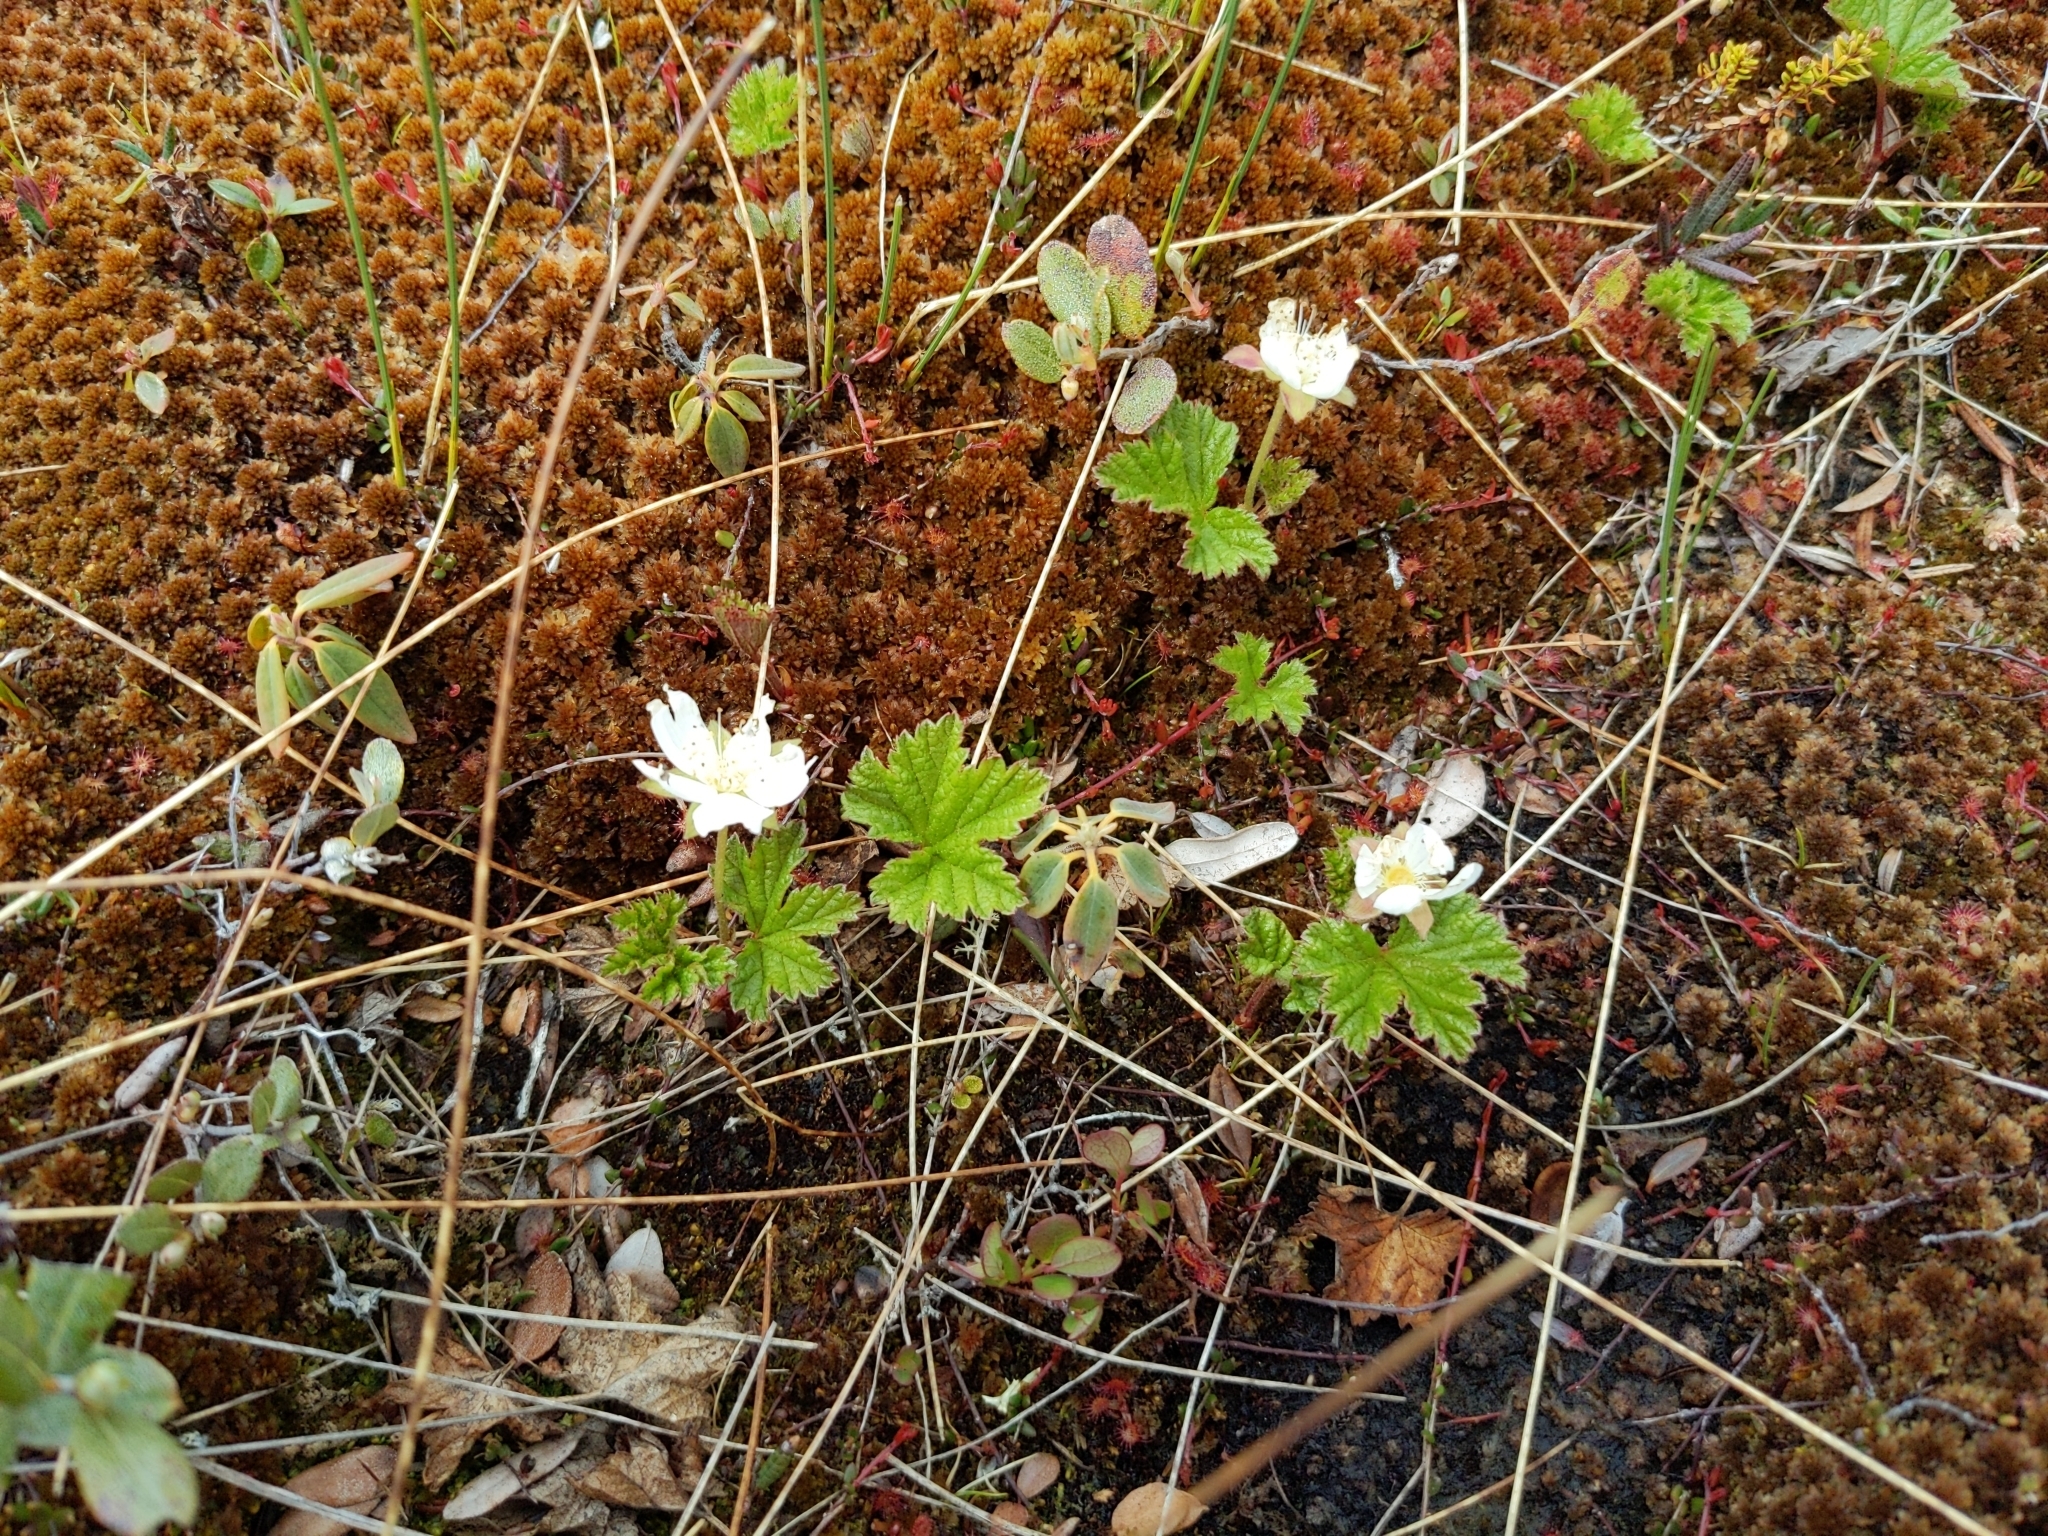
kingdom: Plantae
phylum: Tracheophyta
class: Magnoliopsida
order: Rosales
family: Rosaceae
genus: Rubus
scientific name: Rubus chamaemorus
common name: Cloudberry
